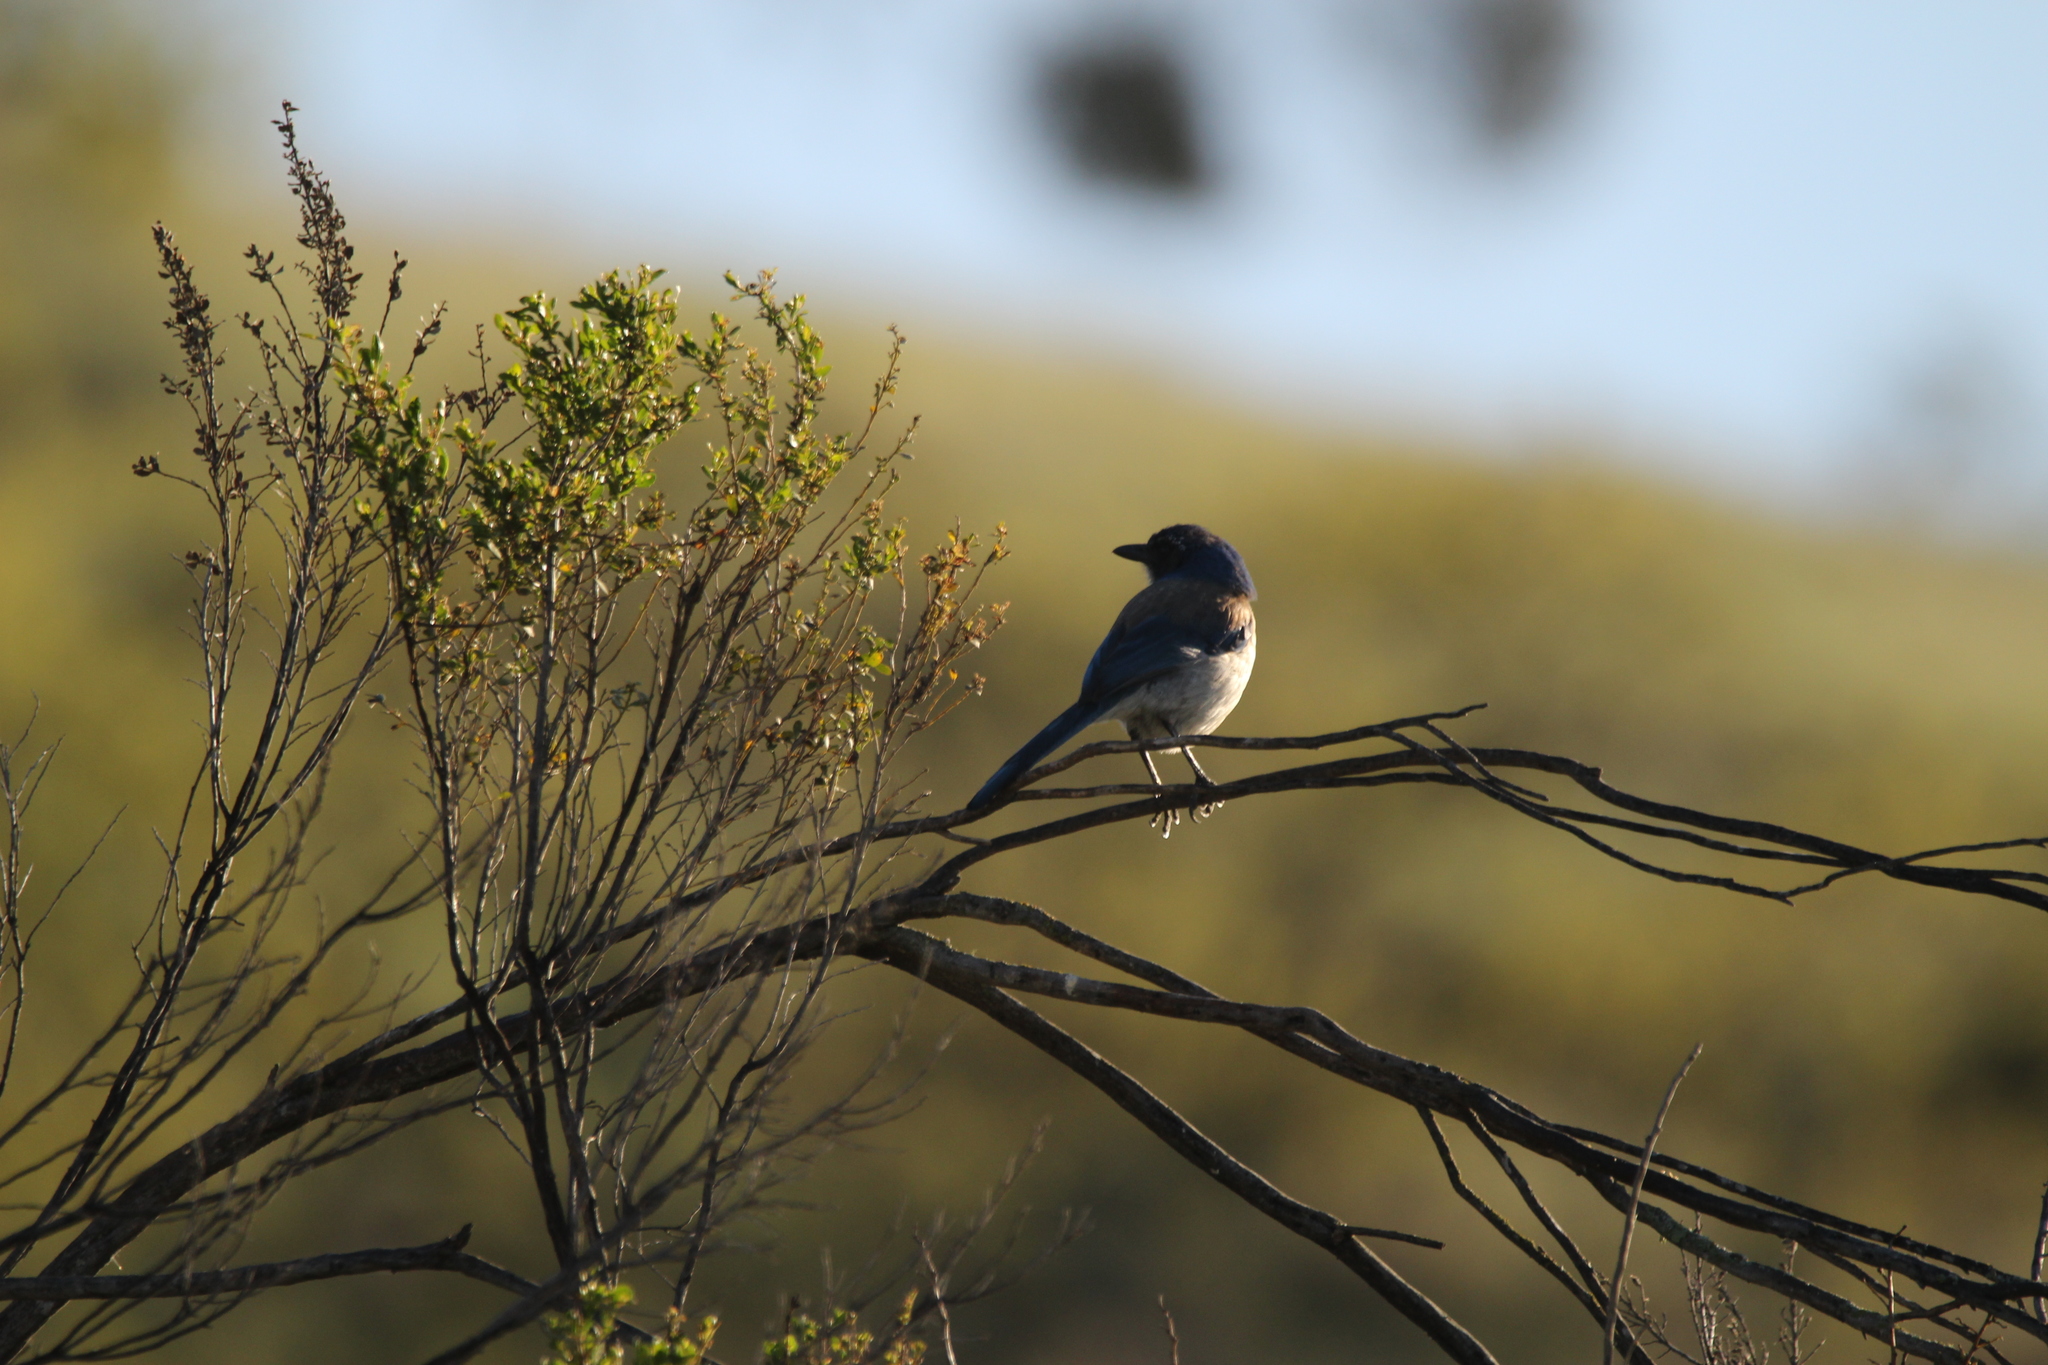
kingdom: Animalia
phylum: Chordata
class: Aves
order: Passeriformes
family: Corvidae
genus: Aphelocoma
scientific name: Aphelocoma californica
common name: California scrub-jay
